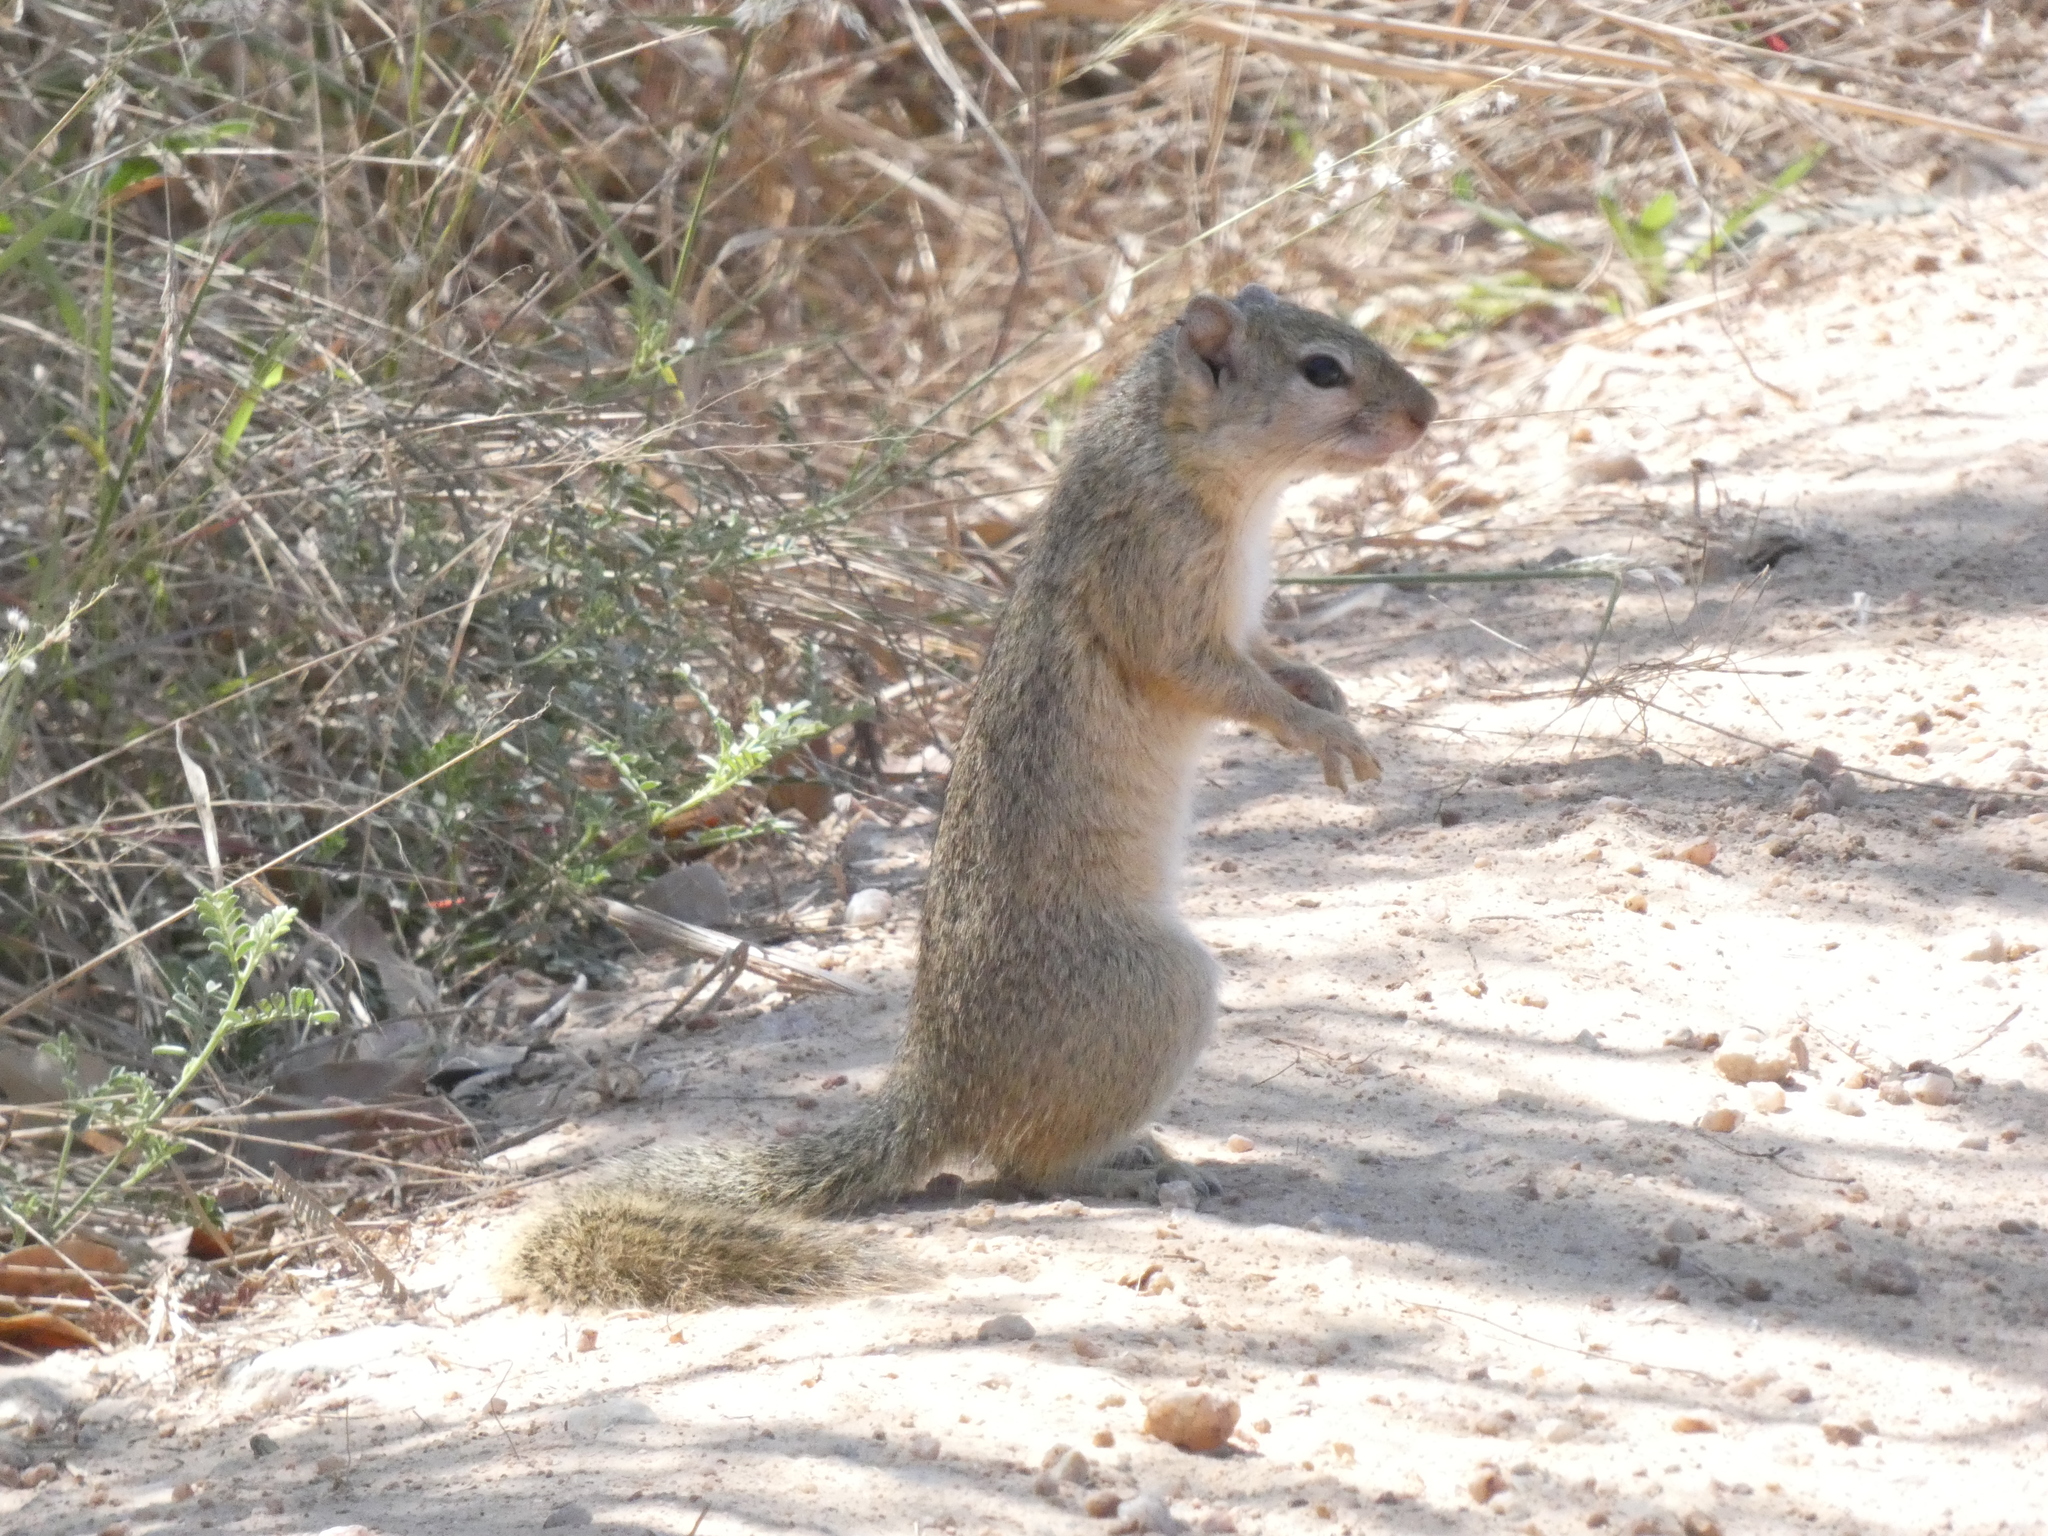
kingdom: Animalia
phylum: Chordata
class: Mammalia
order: Rodentia
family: Sciuridae
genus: Paraxerus
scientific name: Paraxerus cepapi
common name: Smith's bush squirrel
